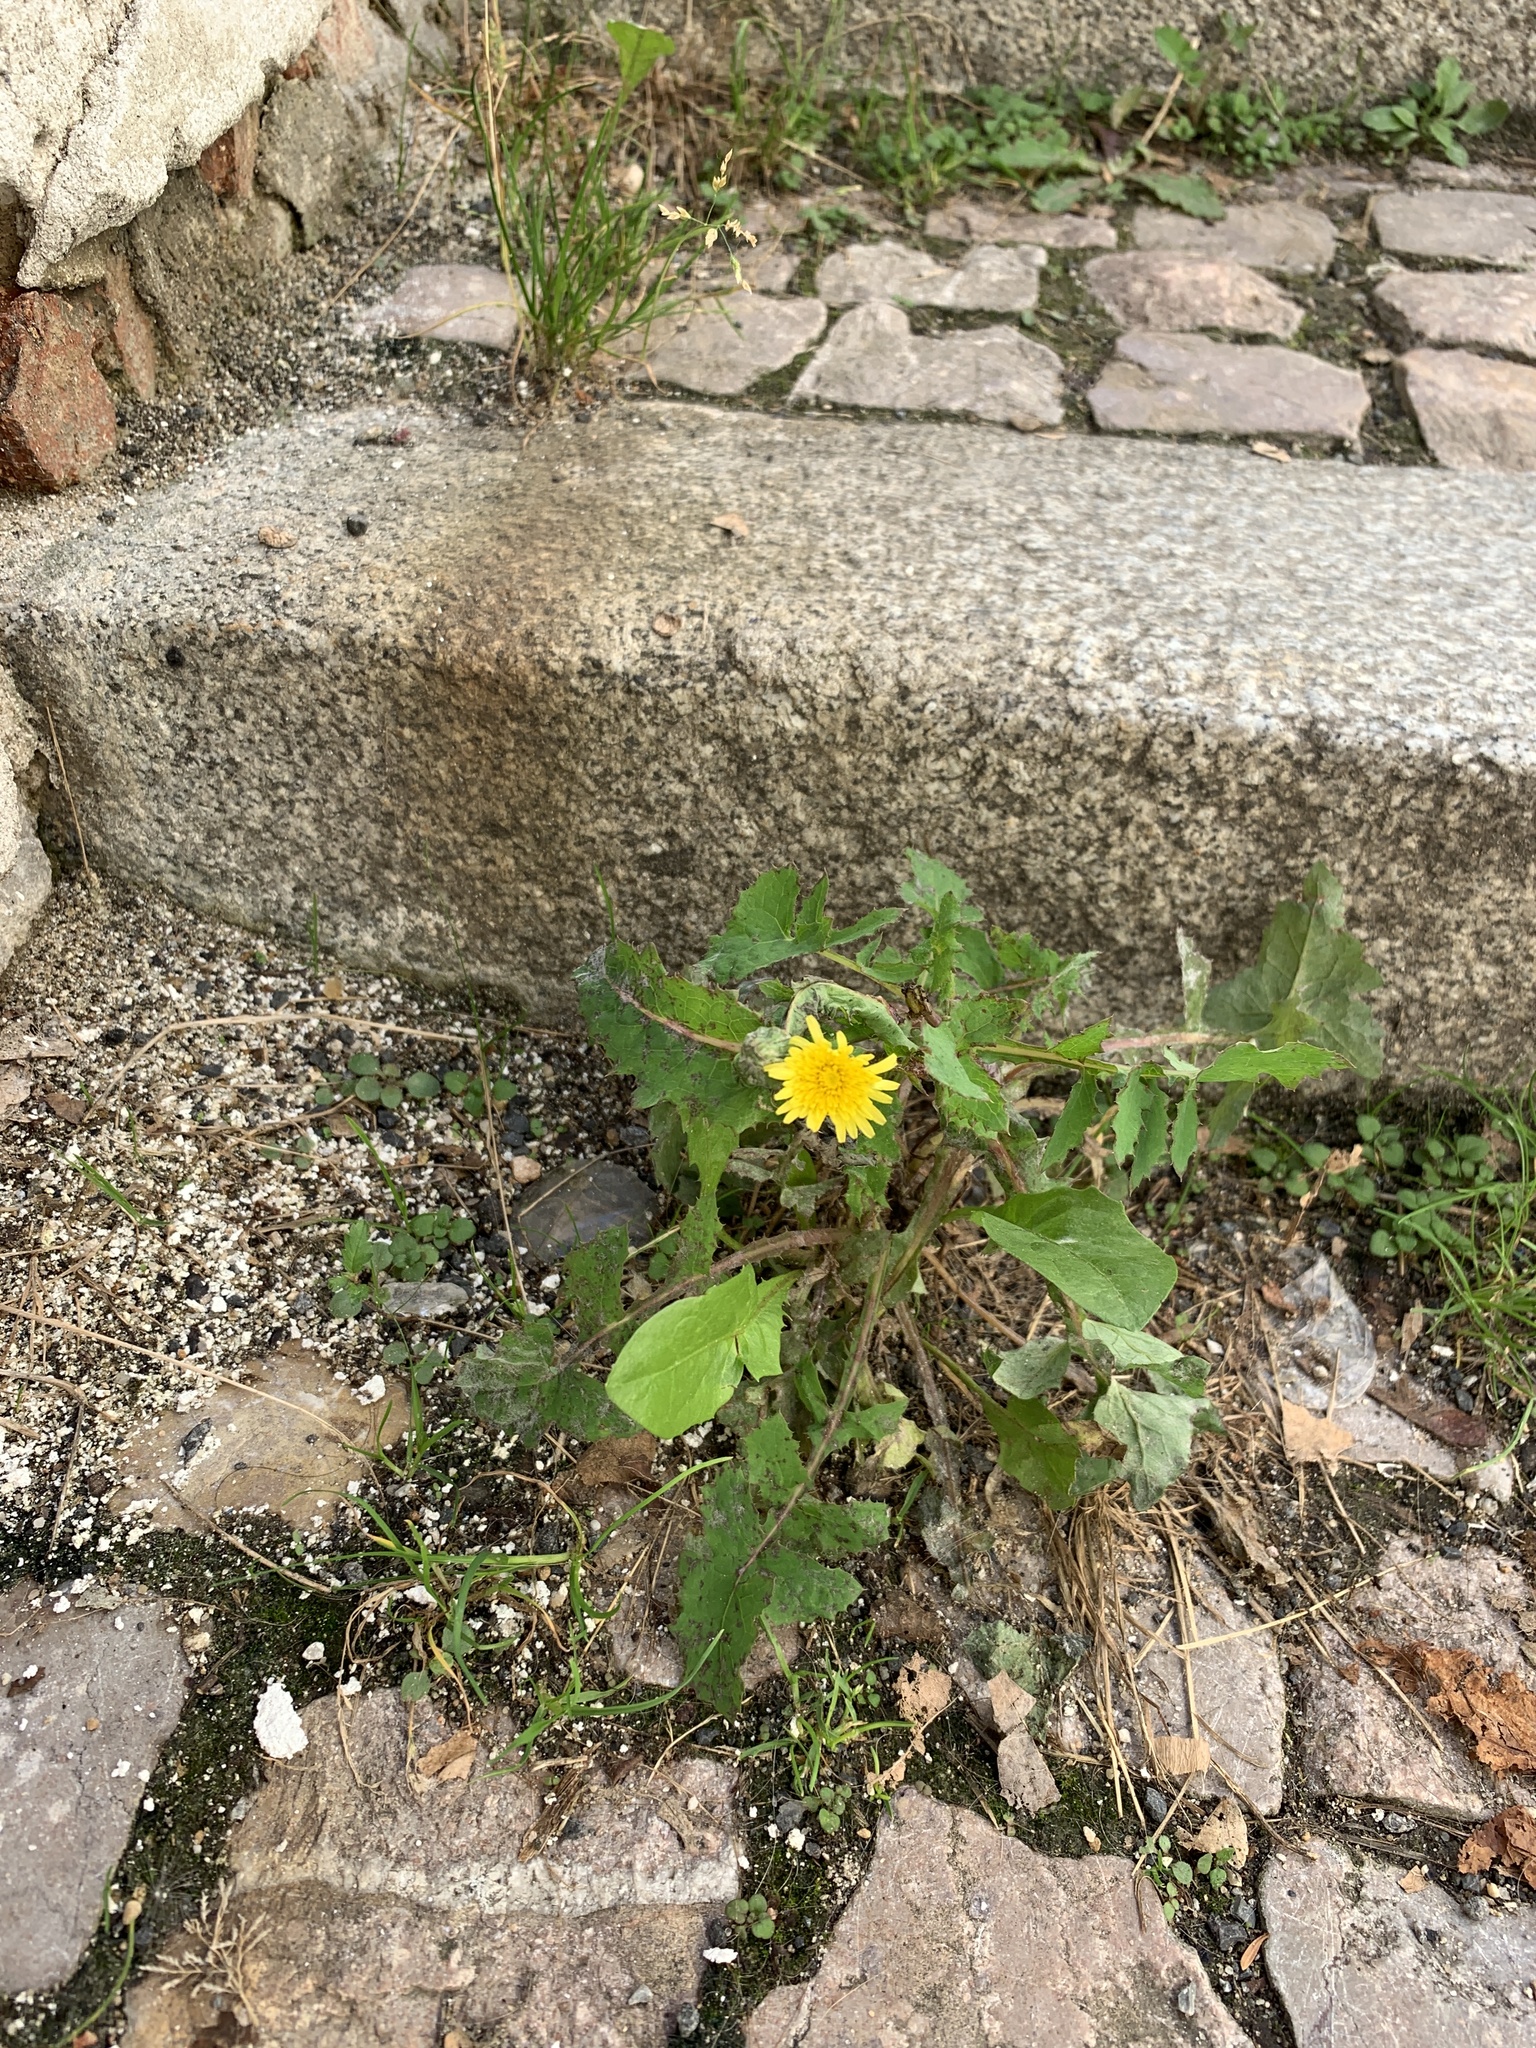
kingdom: Plantae
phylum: Tracheophyta
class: Magnoliopsida
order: Asterales
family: Asteraceae
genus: Sonchus
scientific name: Sonchus oleraceus
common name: Common sowthistle
